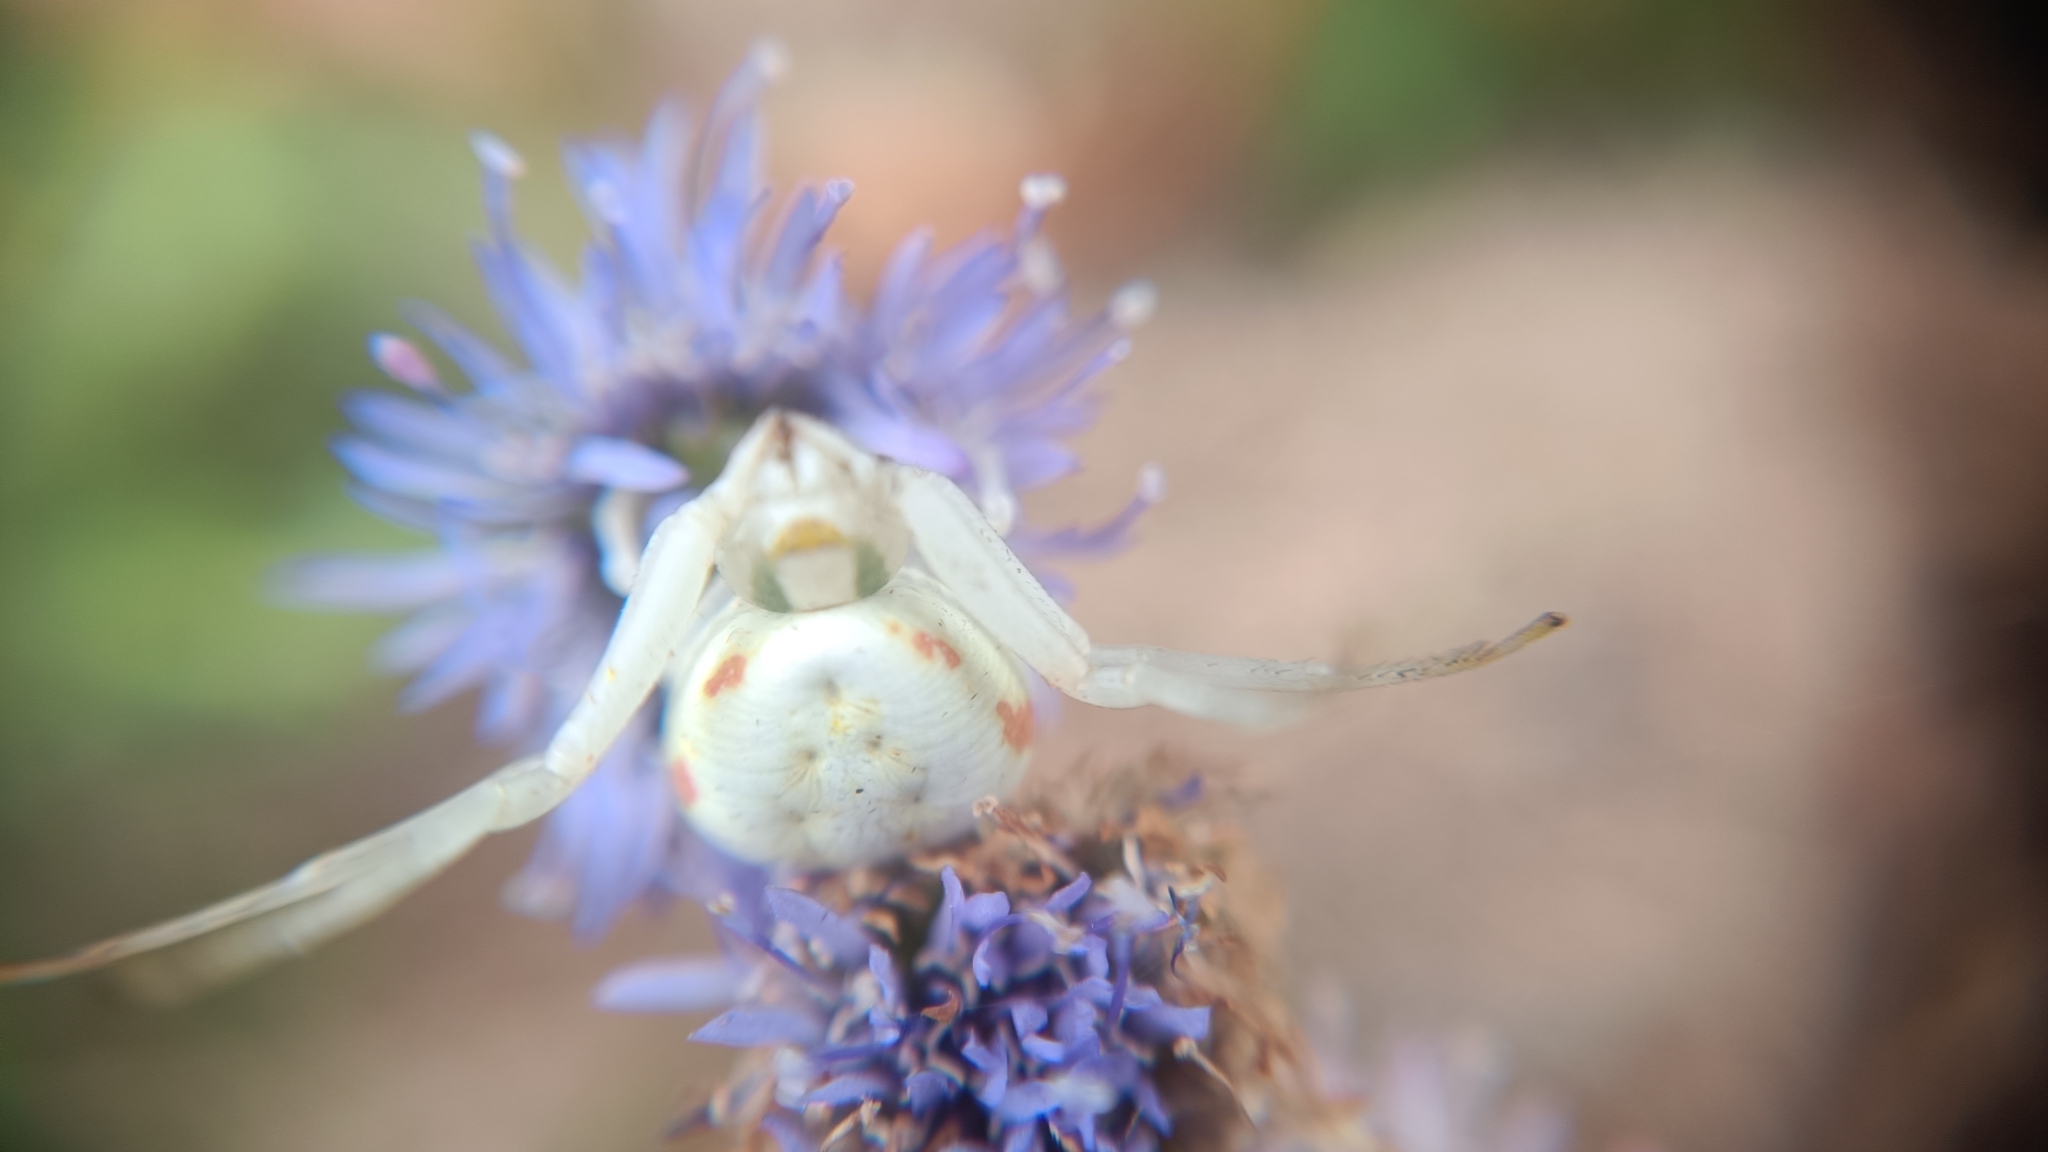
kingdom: Animalia
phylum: Arthropoda
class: Arachnida
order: Araneae
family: Thomisidae
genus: Misumena
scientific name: Misumena vatia
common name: Goldenrod crab spider
